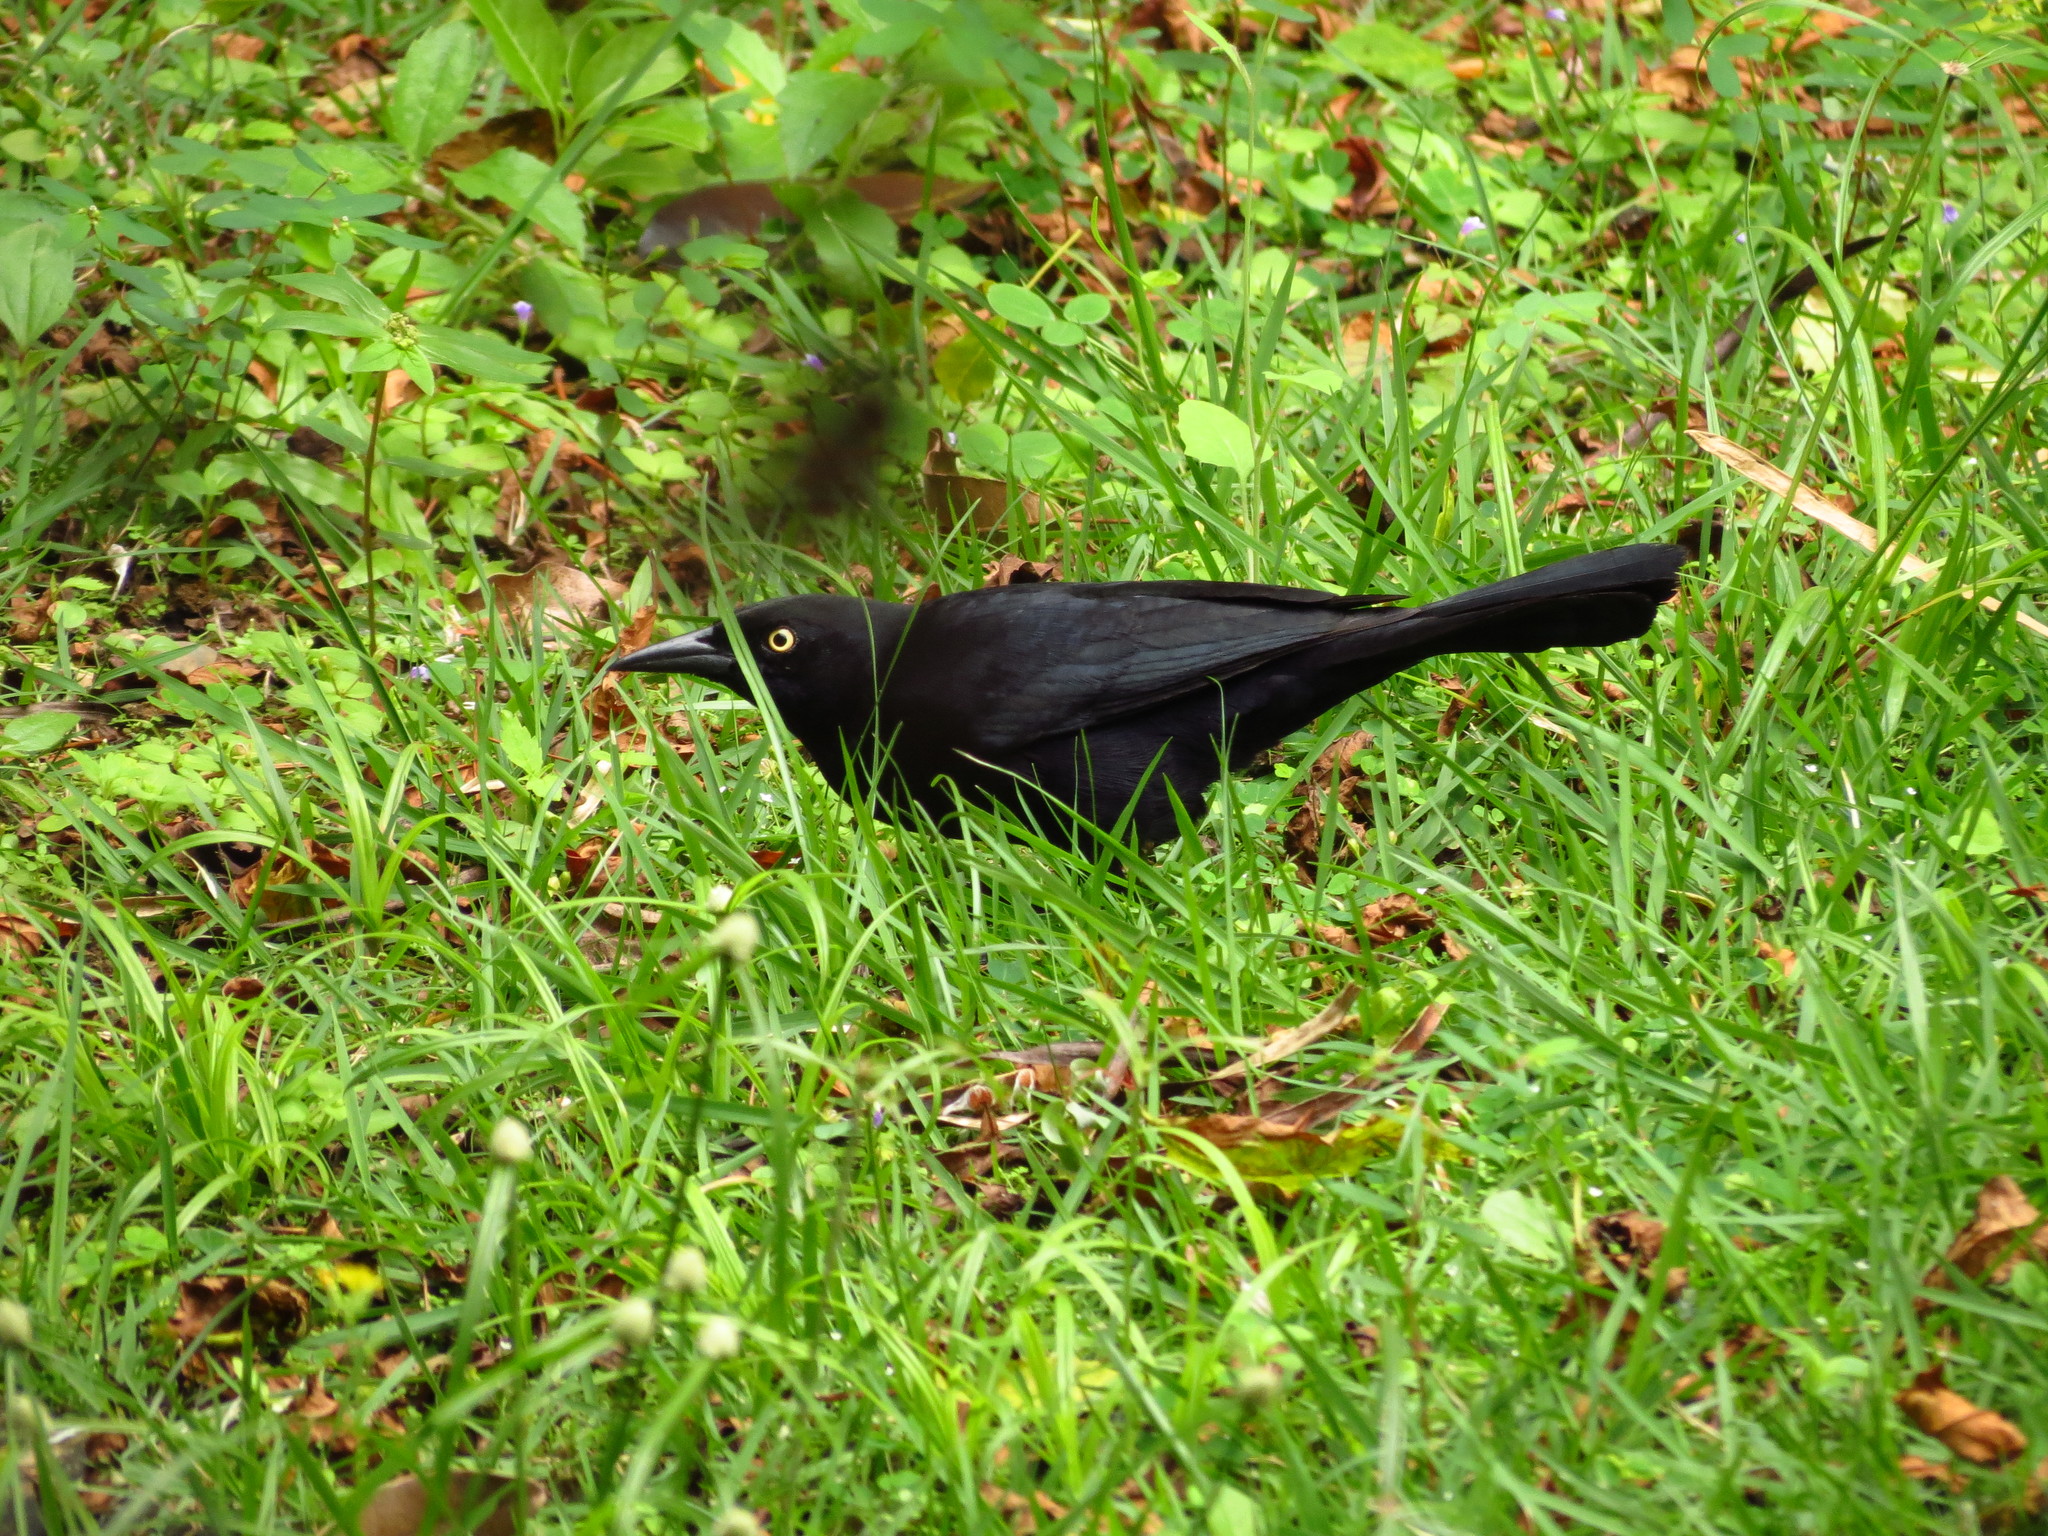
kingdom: Animalia
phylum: Chordata
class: Aves
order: Passeriformes
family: Icteridae
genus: Quiscalus
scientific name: Quiscalus niger
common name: Greater antillean grackle
